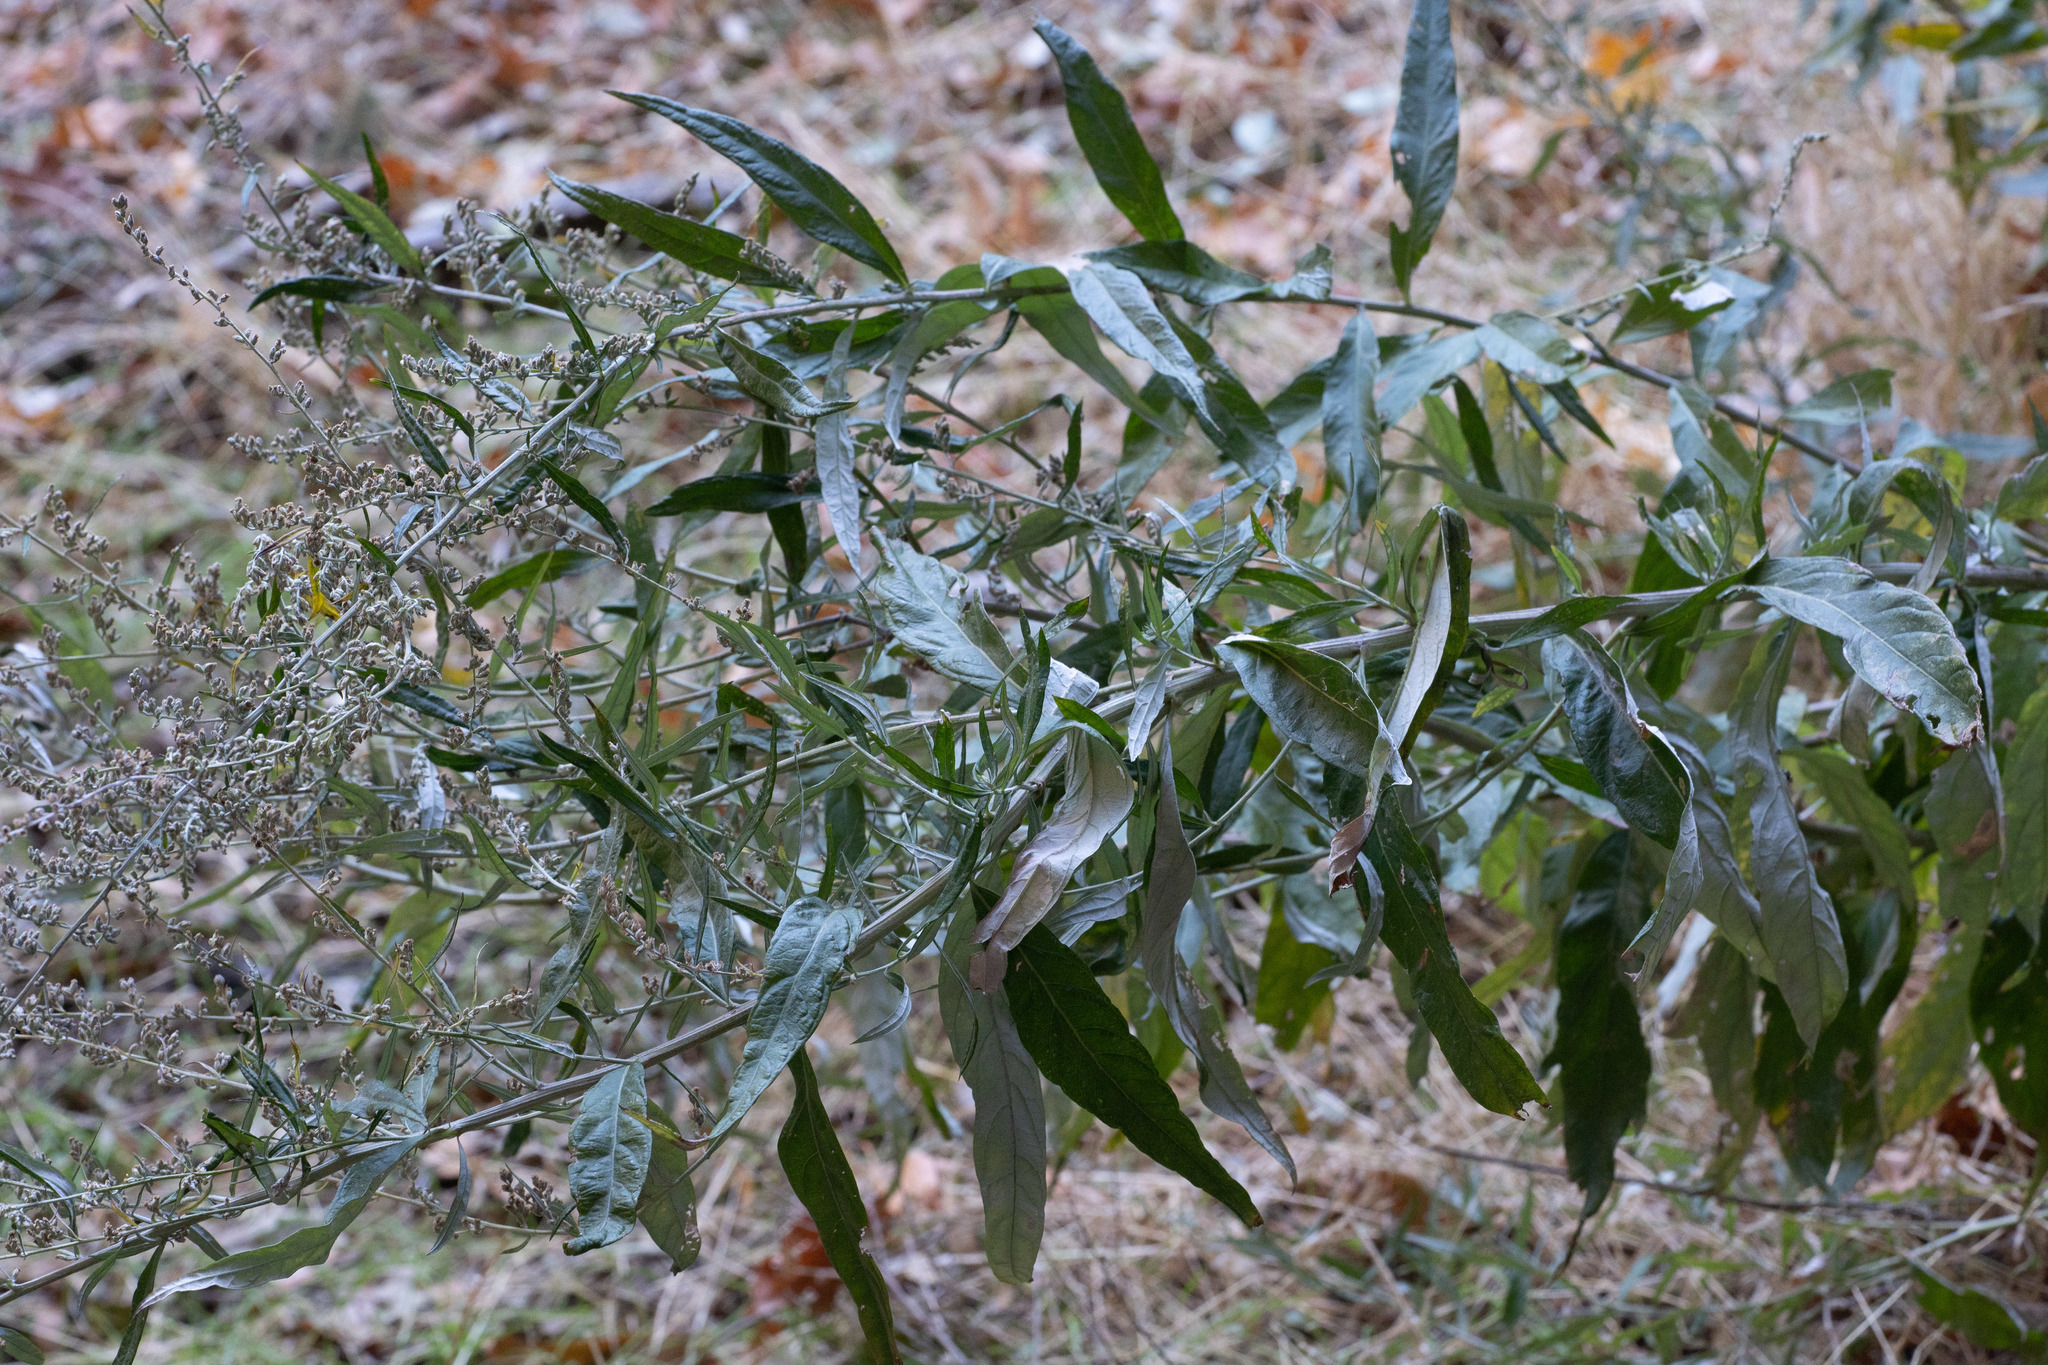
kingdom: Plantae
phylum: Tracheophyta
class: Magnoliopsida
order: Asterales
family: Asteraceae
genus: Artemisia
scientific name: Artemisia douglasiana
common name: Northwest mugwort
